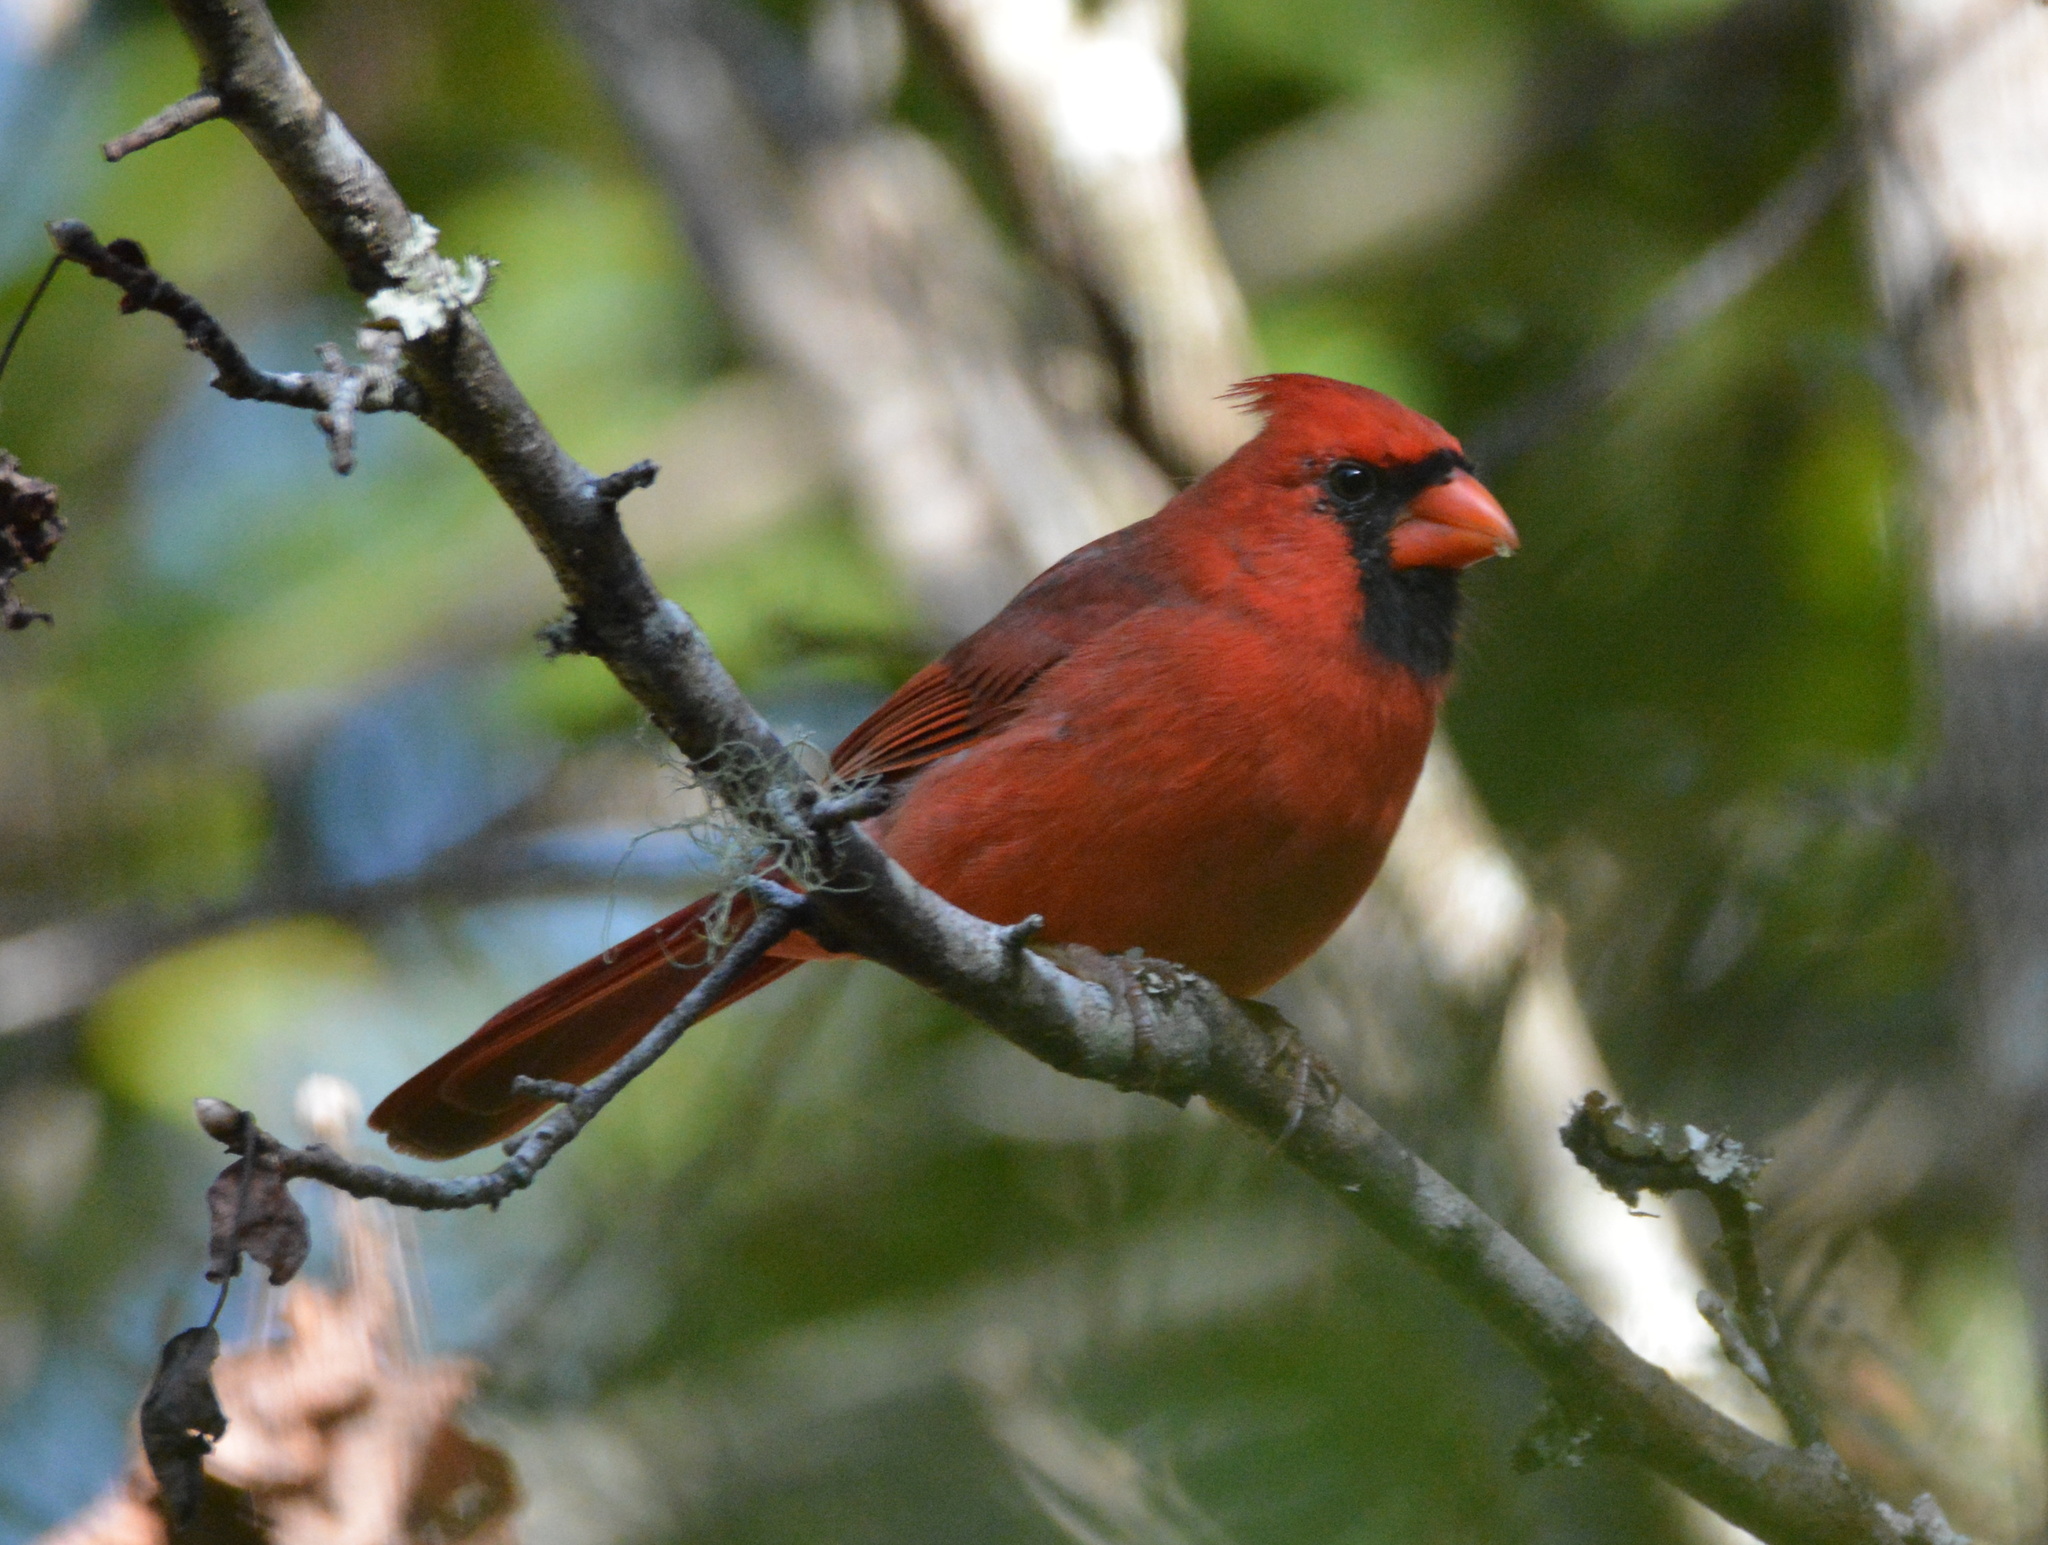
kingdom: Animalia
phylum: Chordata
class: Aves
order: Passeriformes
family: Cardinalidae
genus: Cardinalis
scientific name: Cardinalis cardinalis
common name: Northern cardinal
